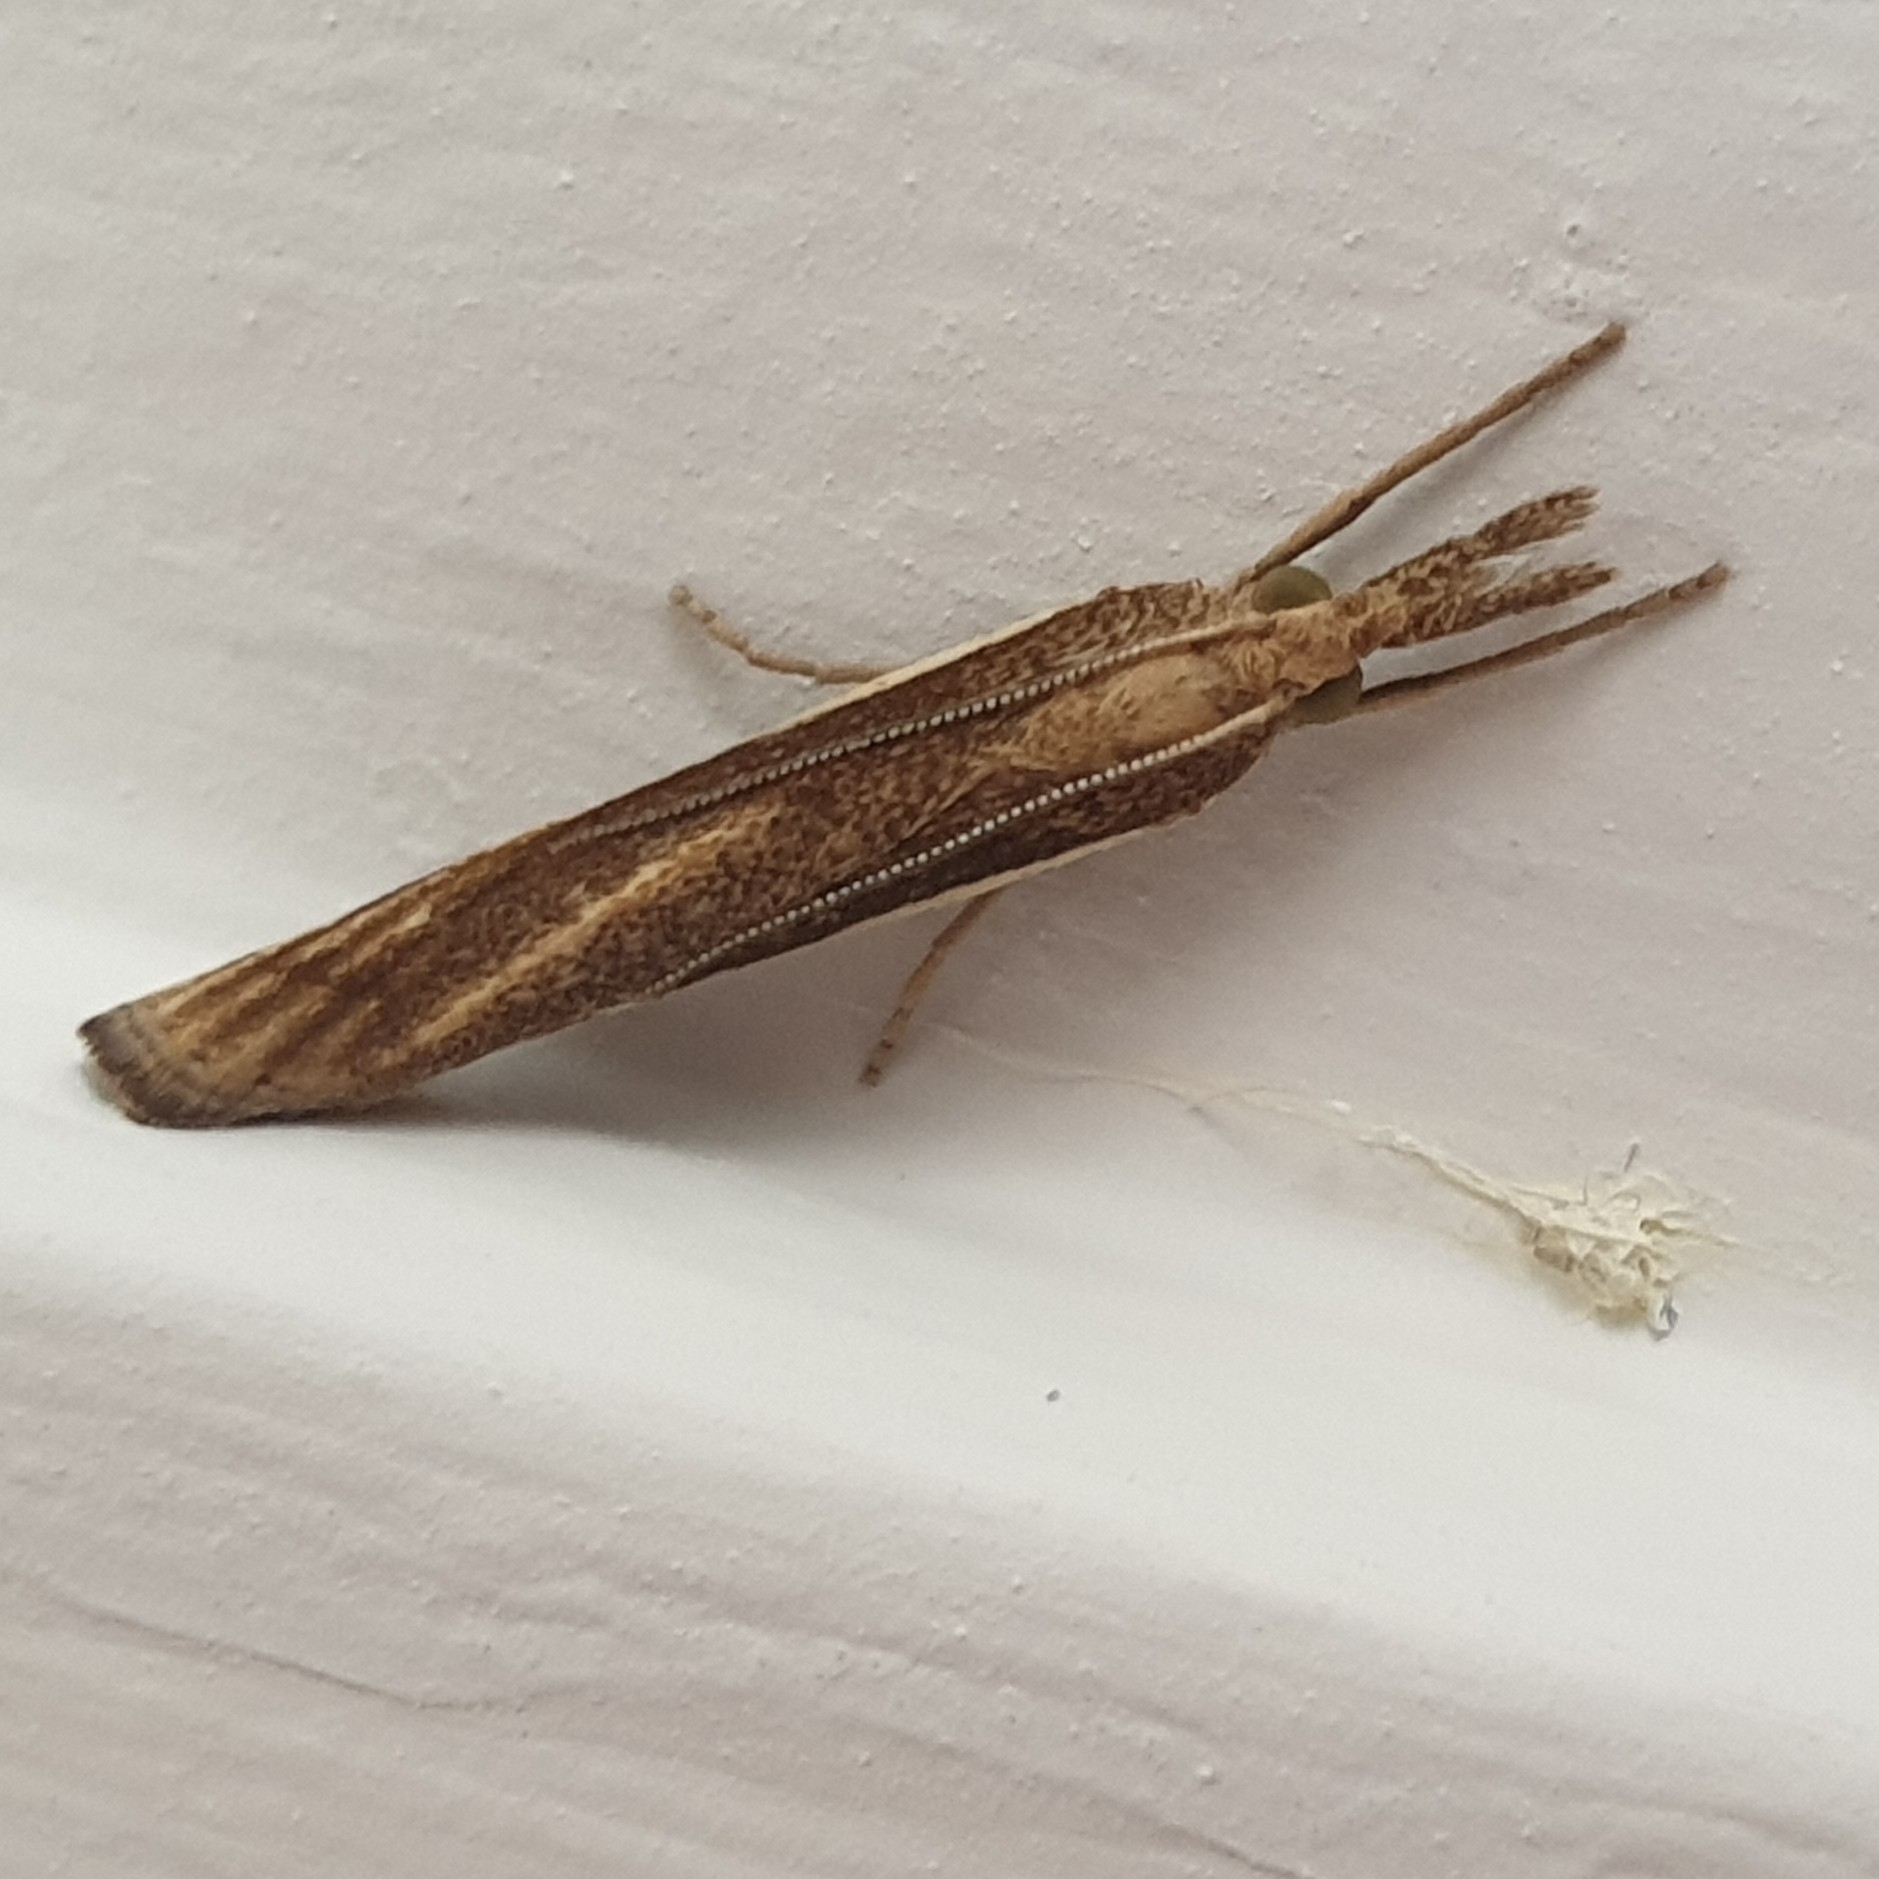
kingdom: Animalia
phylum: Arthropoda
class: Insecta
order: Lepidoptera
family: Crambidae
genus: Agriphila
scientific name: Agriphila tristellus
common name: Common grass-veneer
